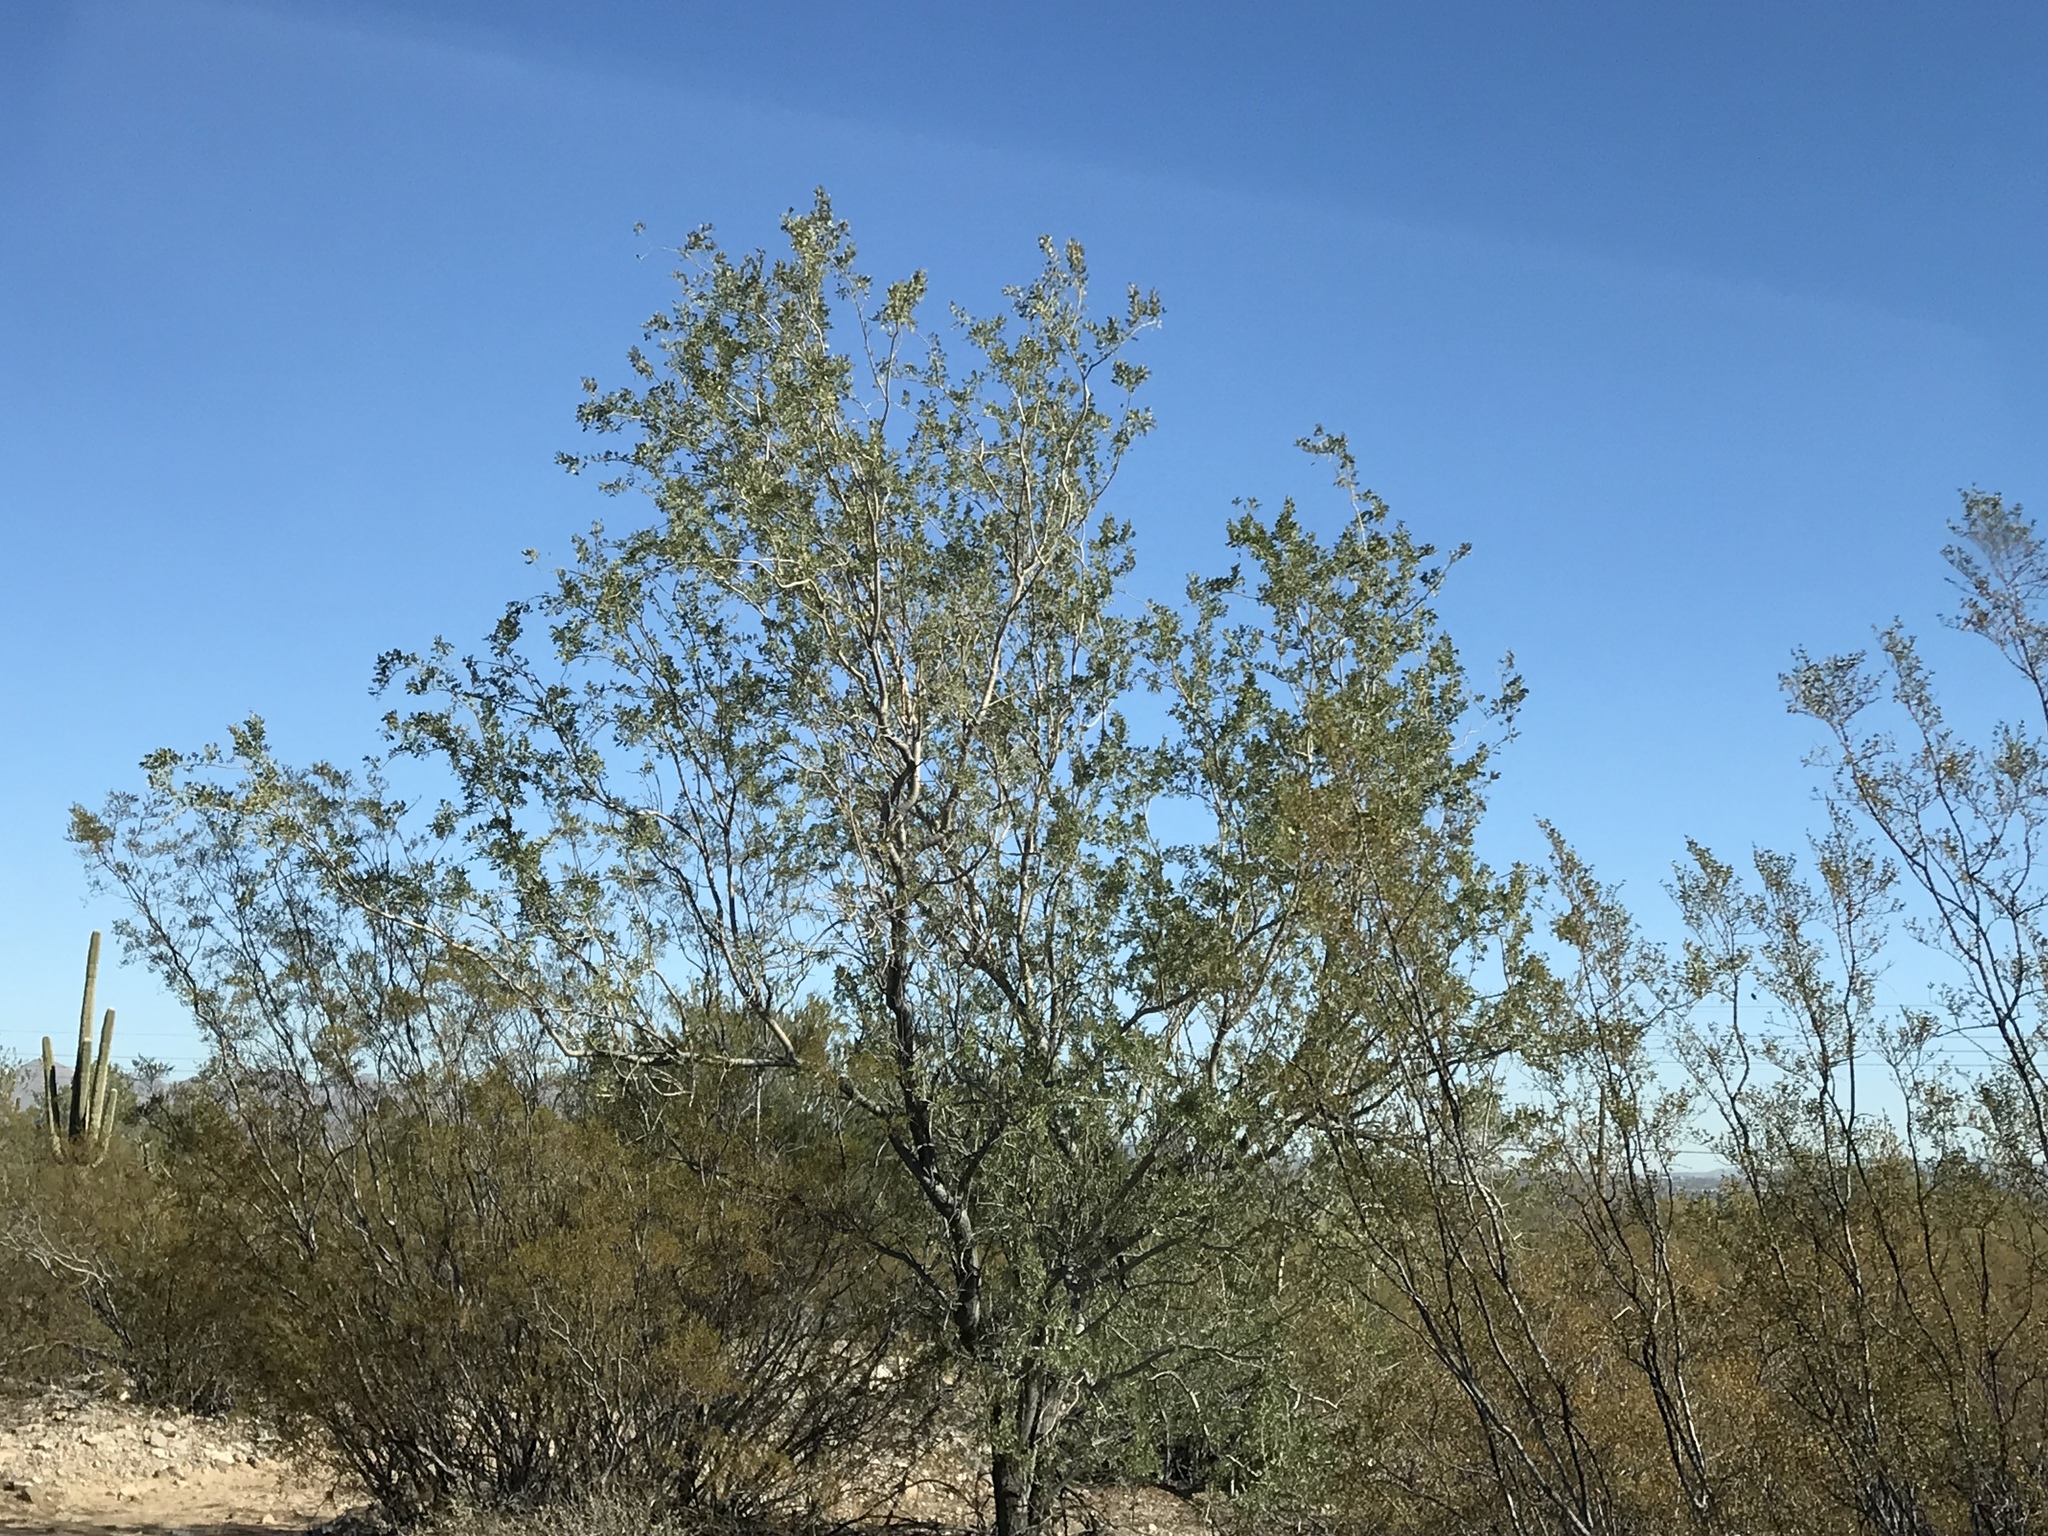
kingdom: Plantae
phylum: Tracheophyta
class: Magnoliopsida
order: Fabales
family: Fabaceae
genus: Olneya
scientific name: Olneya tesota
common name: Desert ironwood
